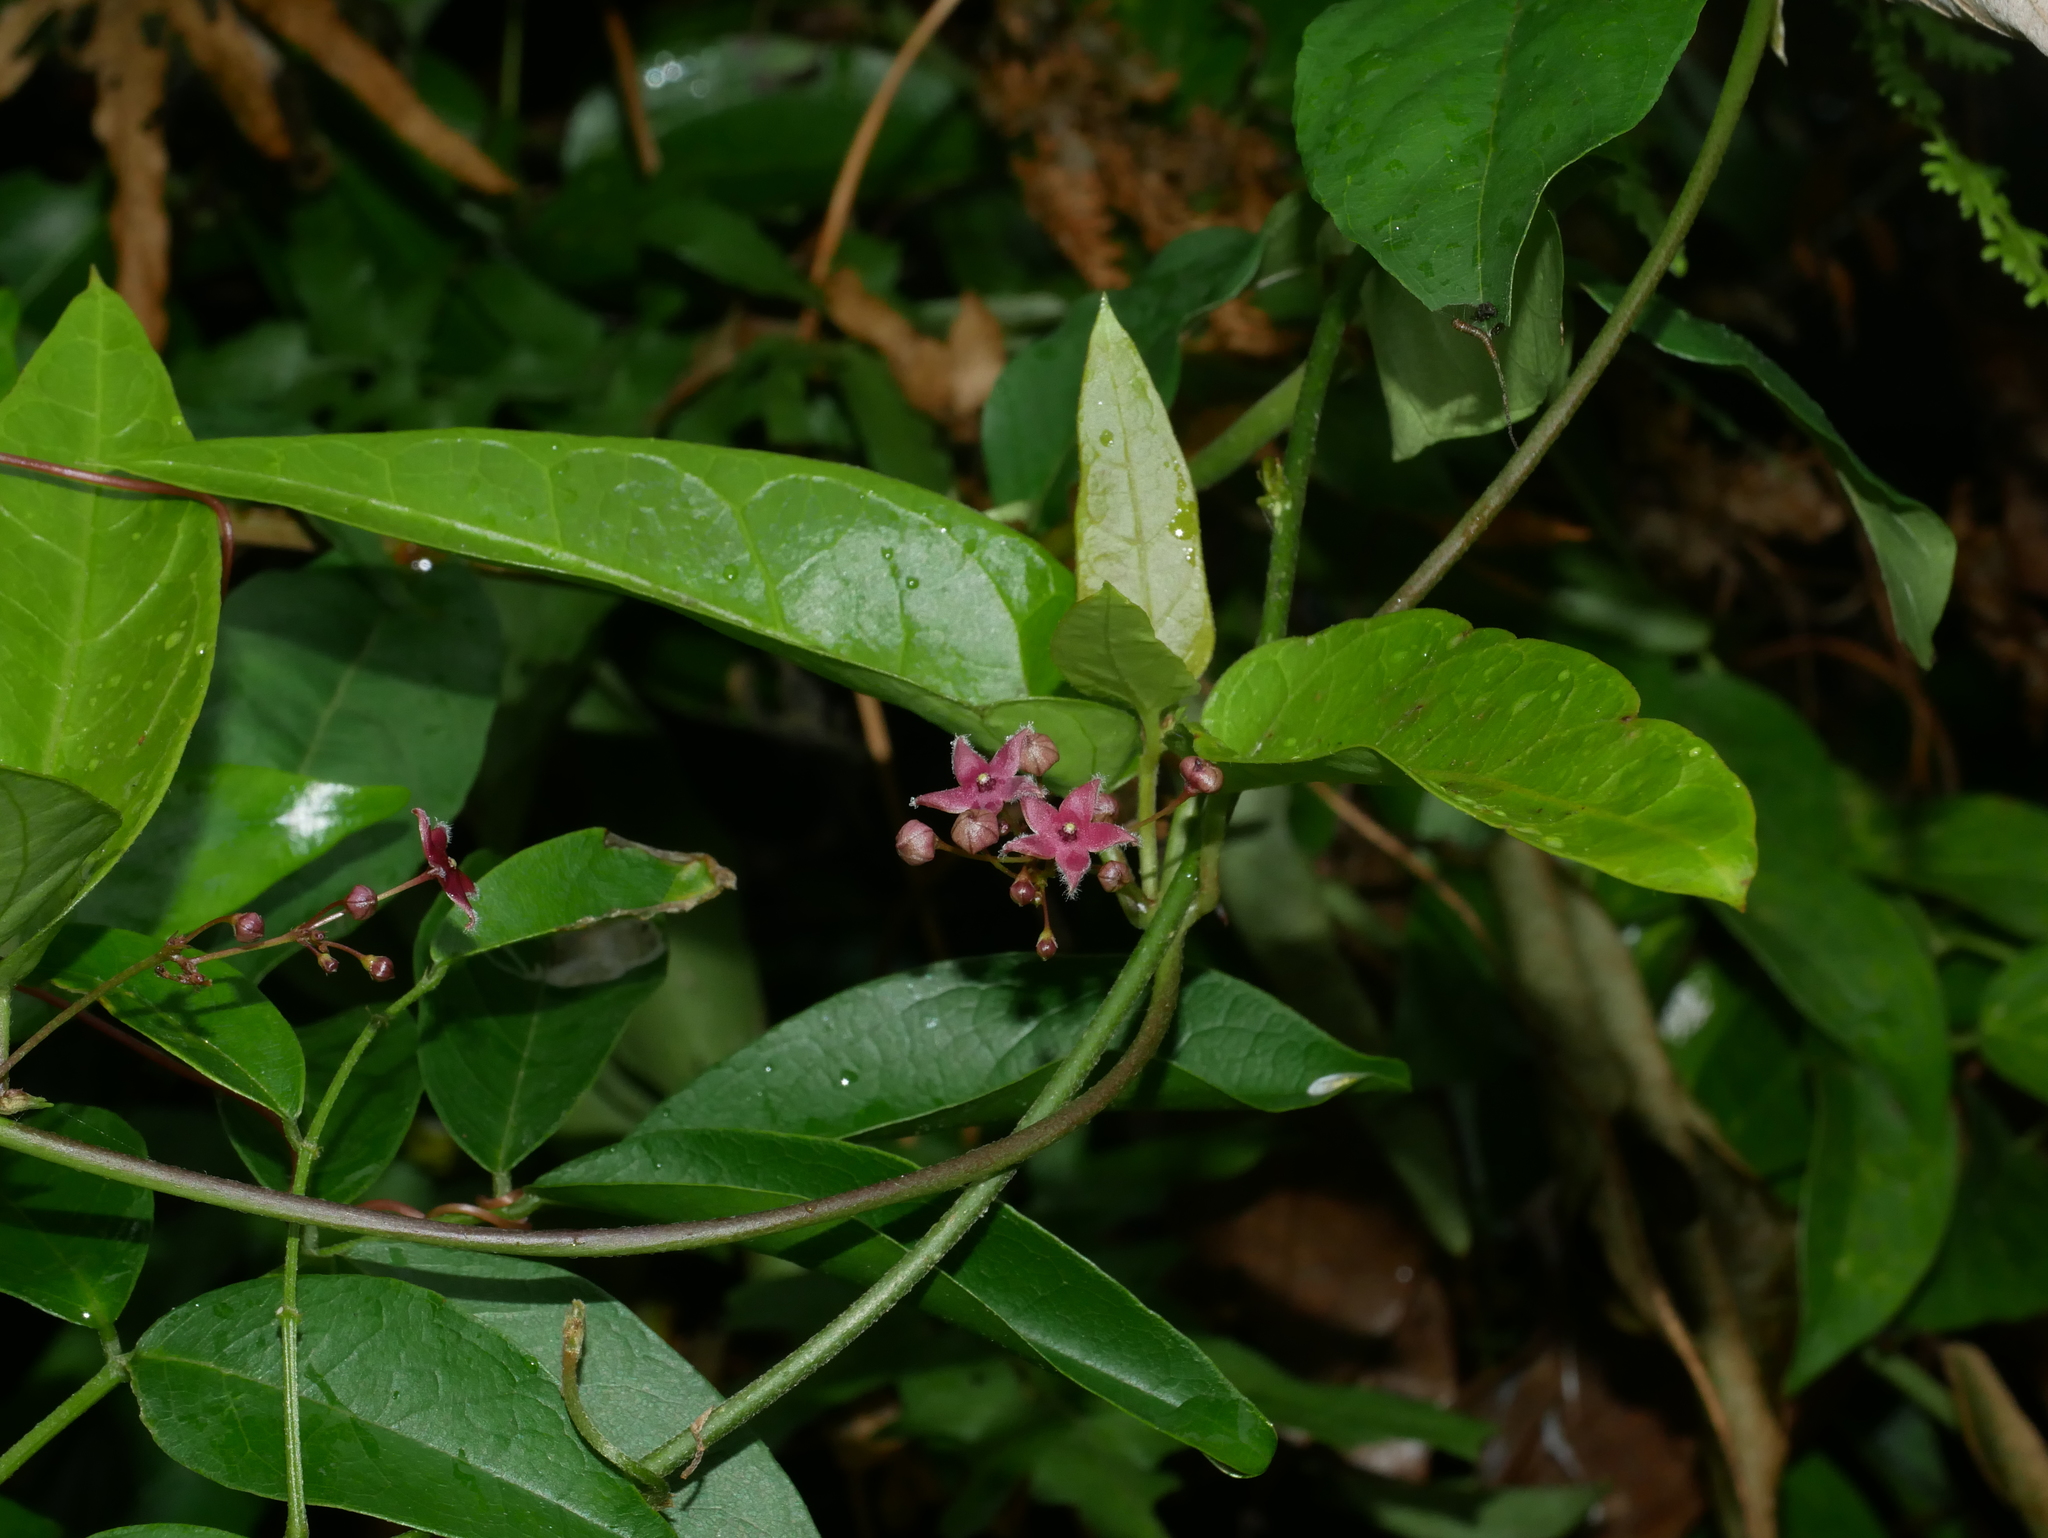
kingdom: Plantae
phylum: Tracheophyta
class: Magnoliopsida
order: Gentianales
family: Apocynaceae
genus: Vincetoxicum
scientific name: Vincetoxicum hirsutum
